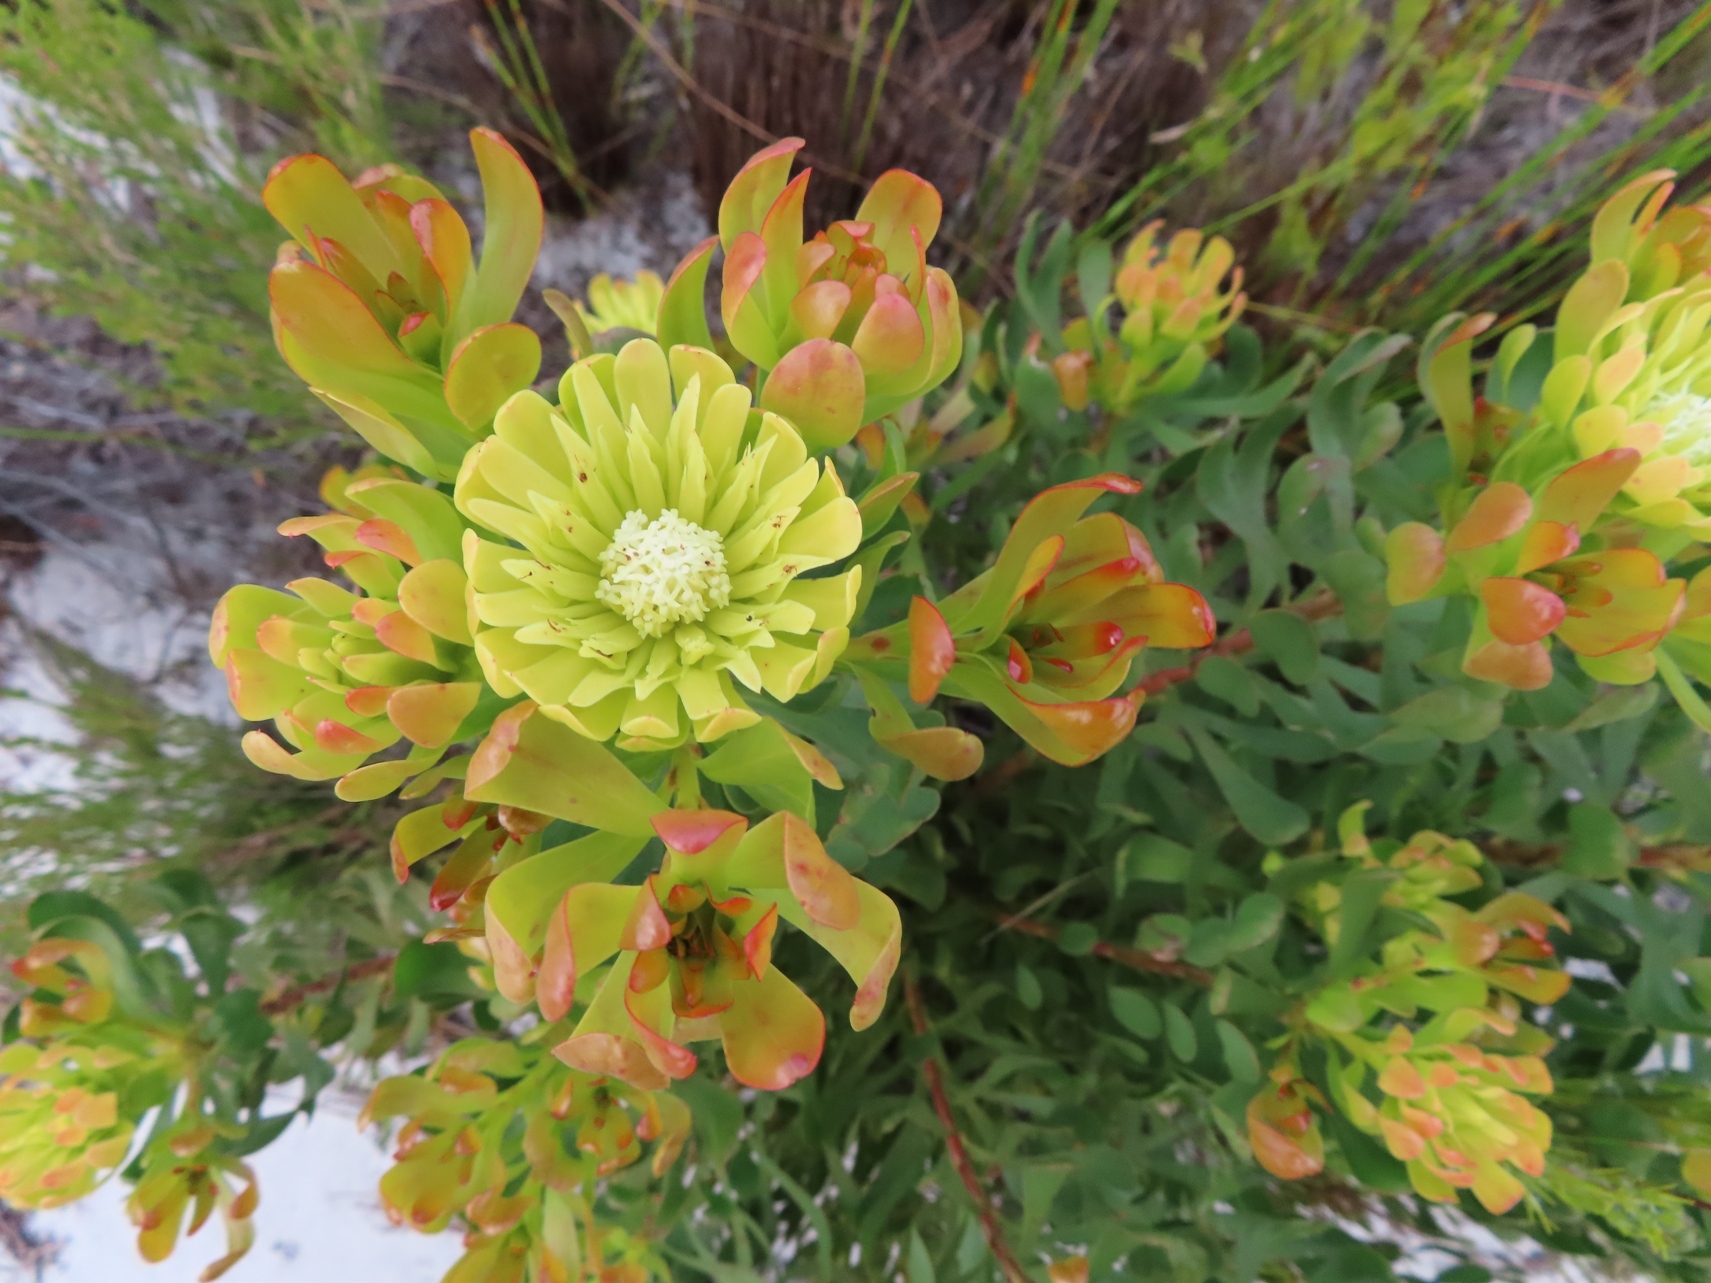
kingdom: Plantae
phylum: Tracheophyta
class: Magnoliopsida
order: Proteales
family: Proteaceae
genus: Aulax
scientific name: Aulax umbellata
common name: Broad-leaf featherbush
